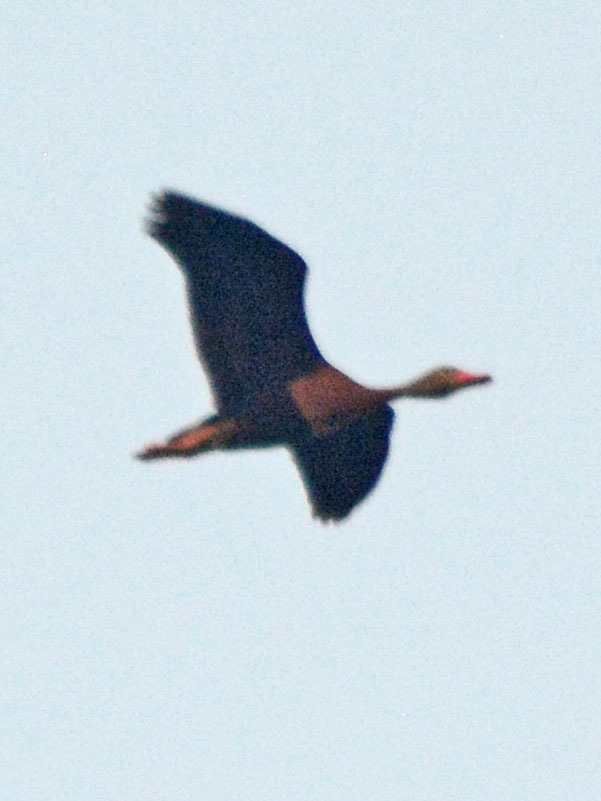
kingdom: Animalia
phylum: Chordata
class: Aves
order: Anseriformes
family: Anatidae
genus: Dendrocygna
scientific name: Dendrocygna autumnalis
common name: Black-bellied whistling duck
